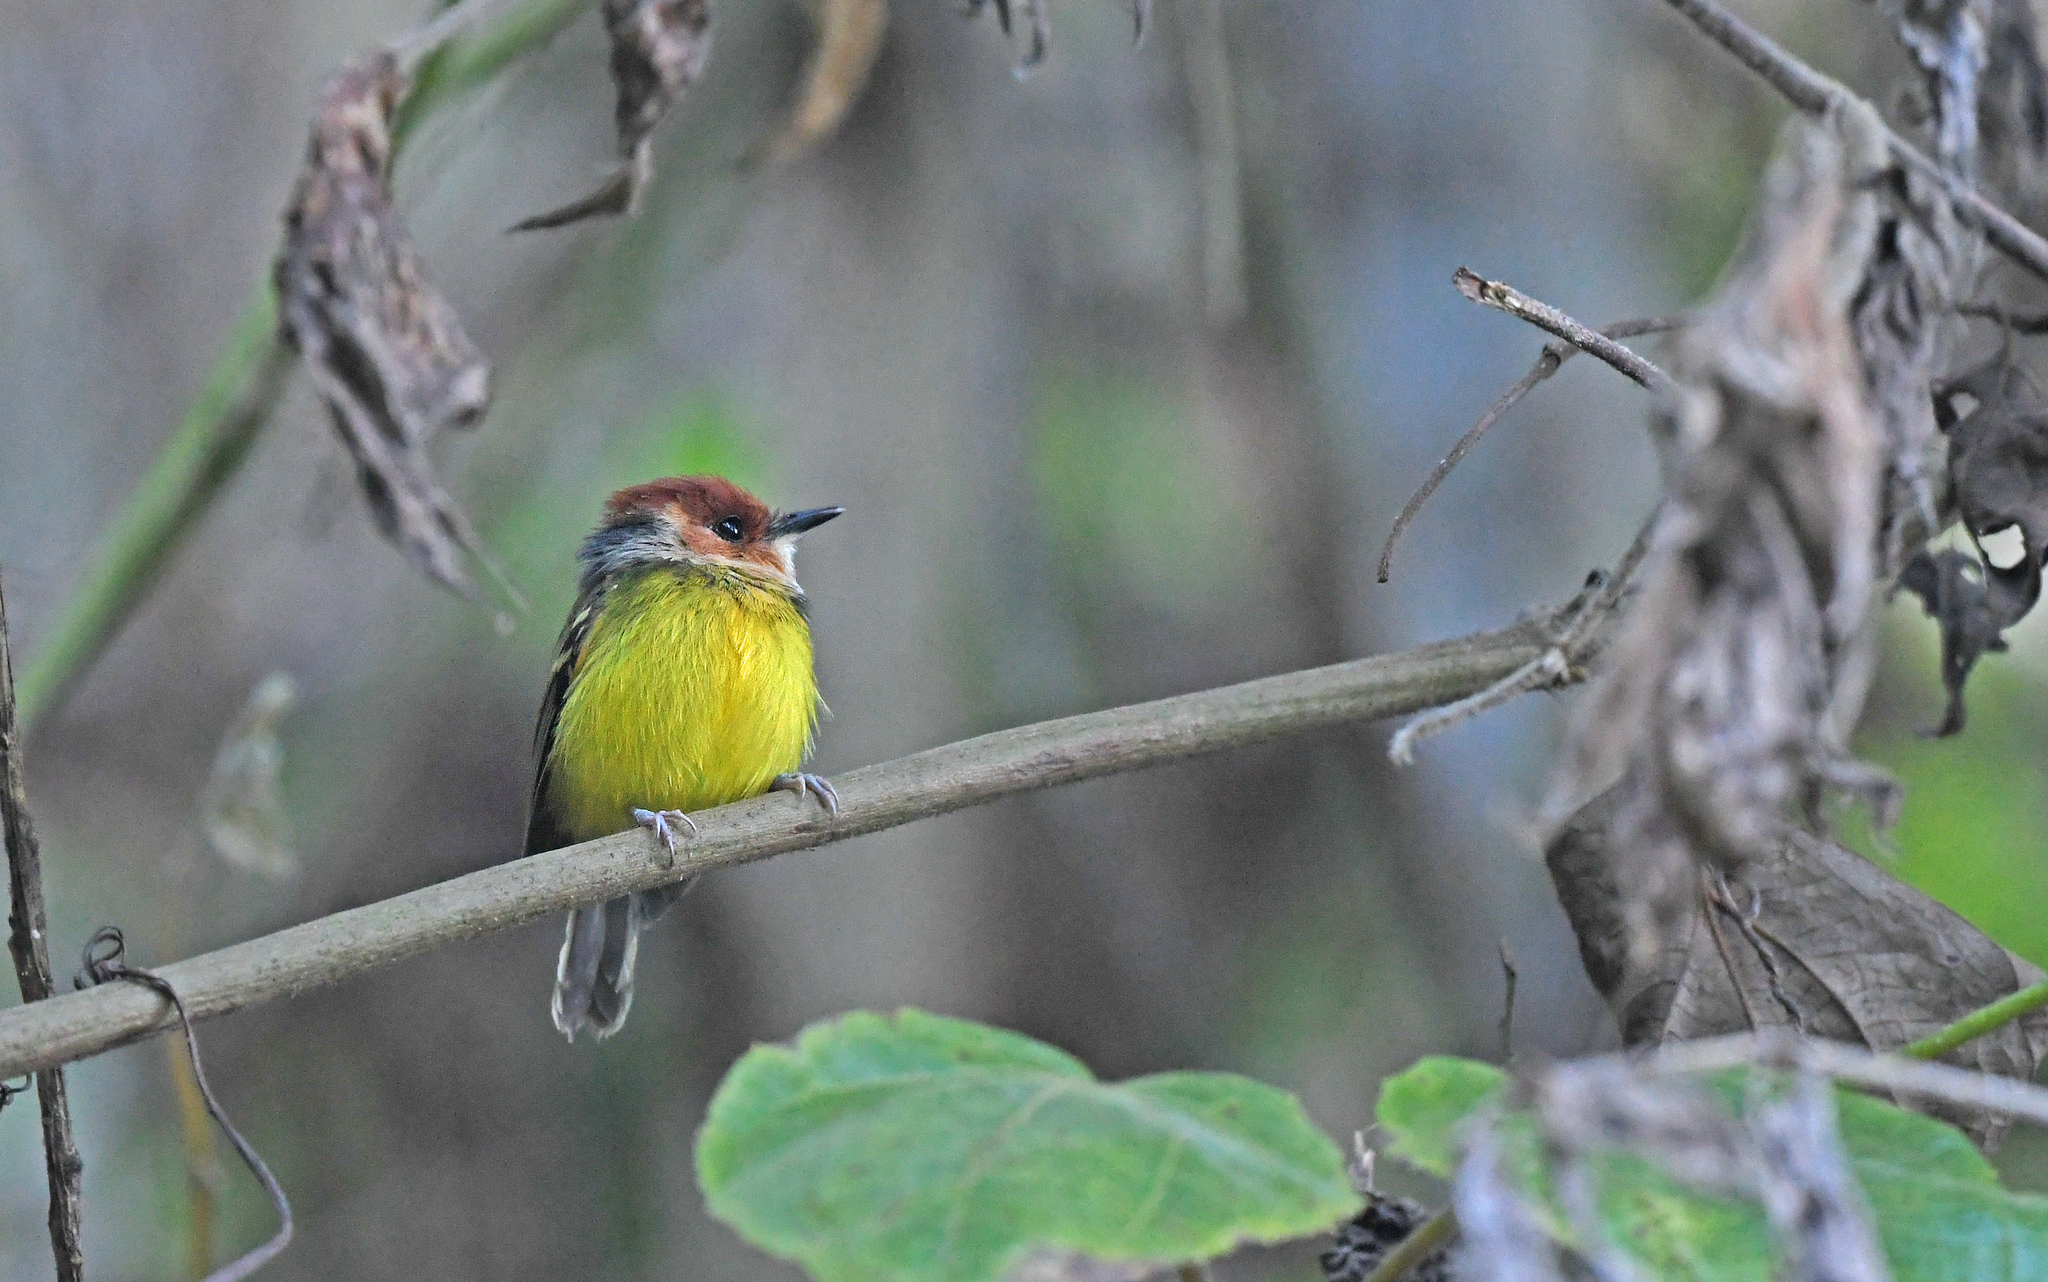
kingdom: Animalia
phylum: Chordata
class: Aves
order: Passeriformes
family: Tyrannidae
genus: Poecilotriccus
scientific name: Poecilotriccus ruficeps
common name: Rufous-crowned tody-flycatcher
